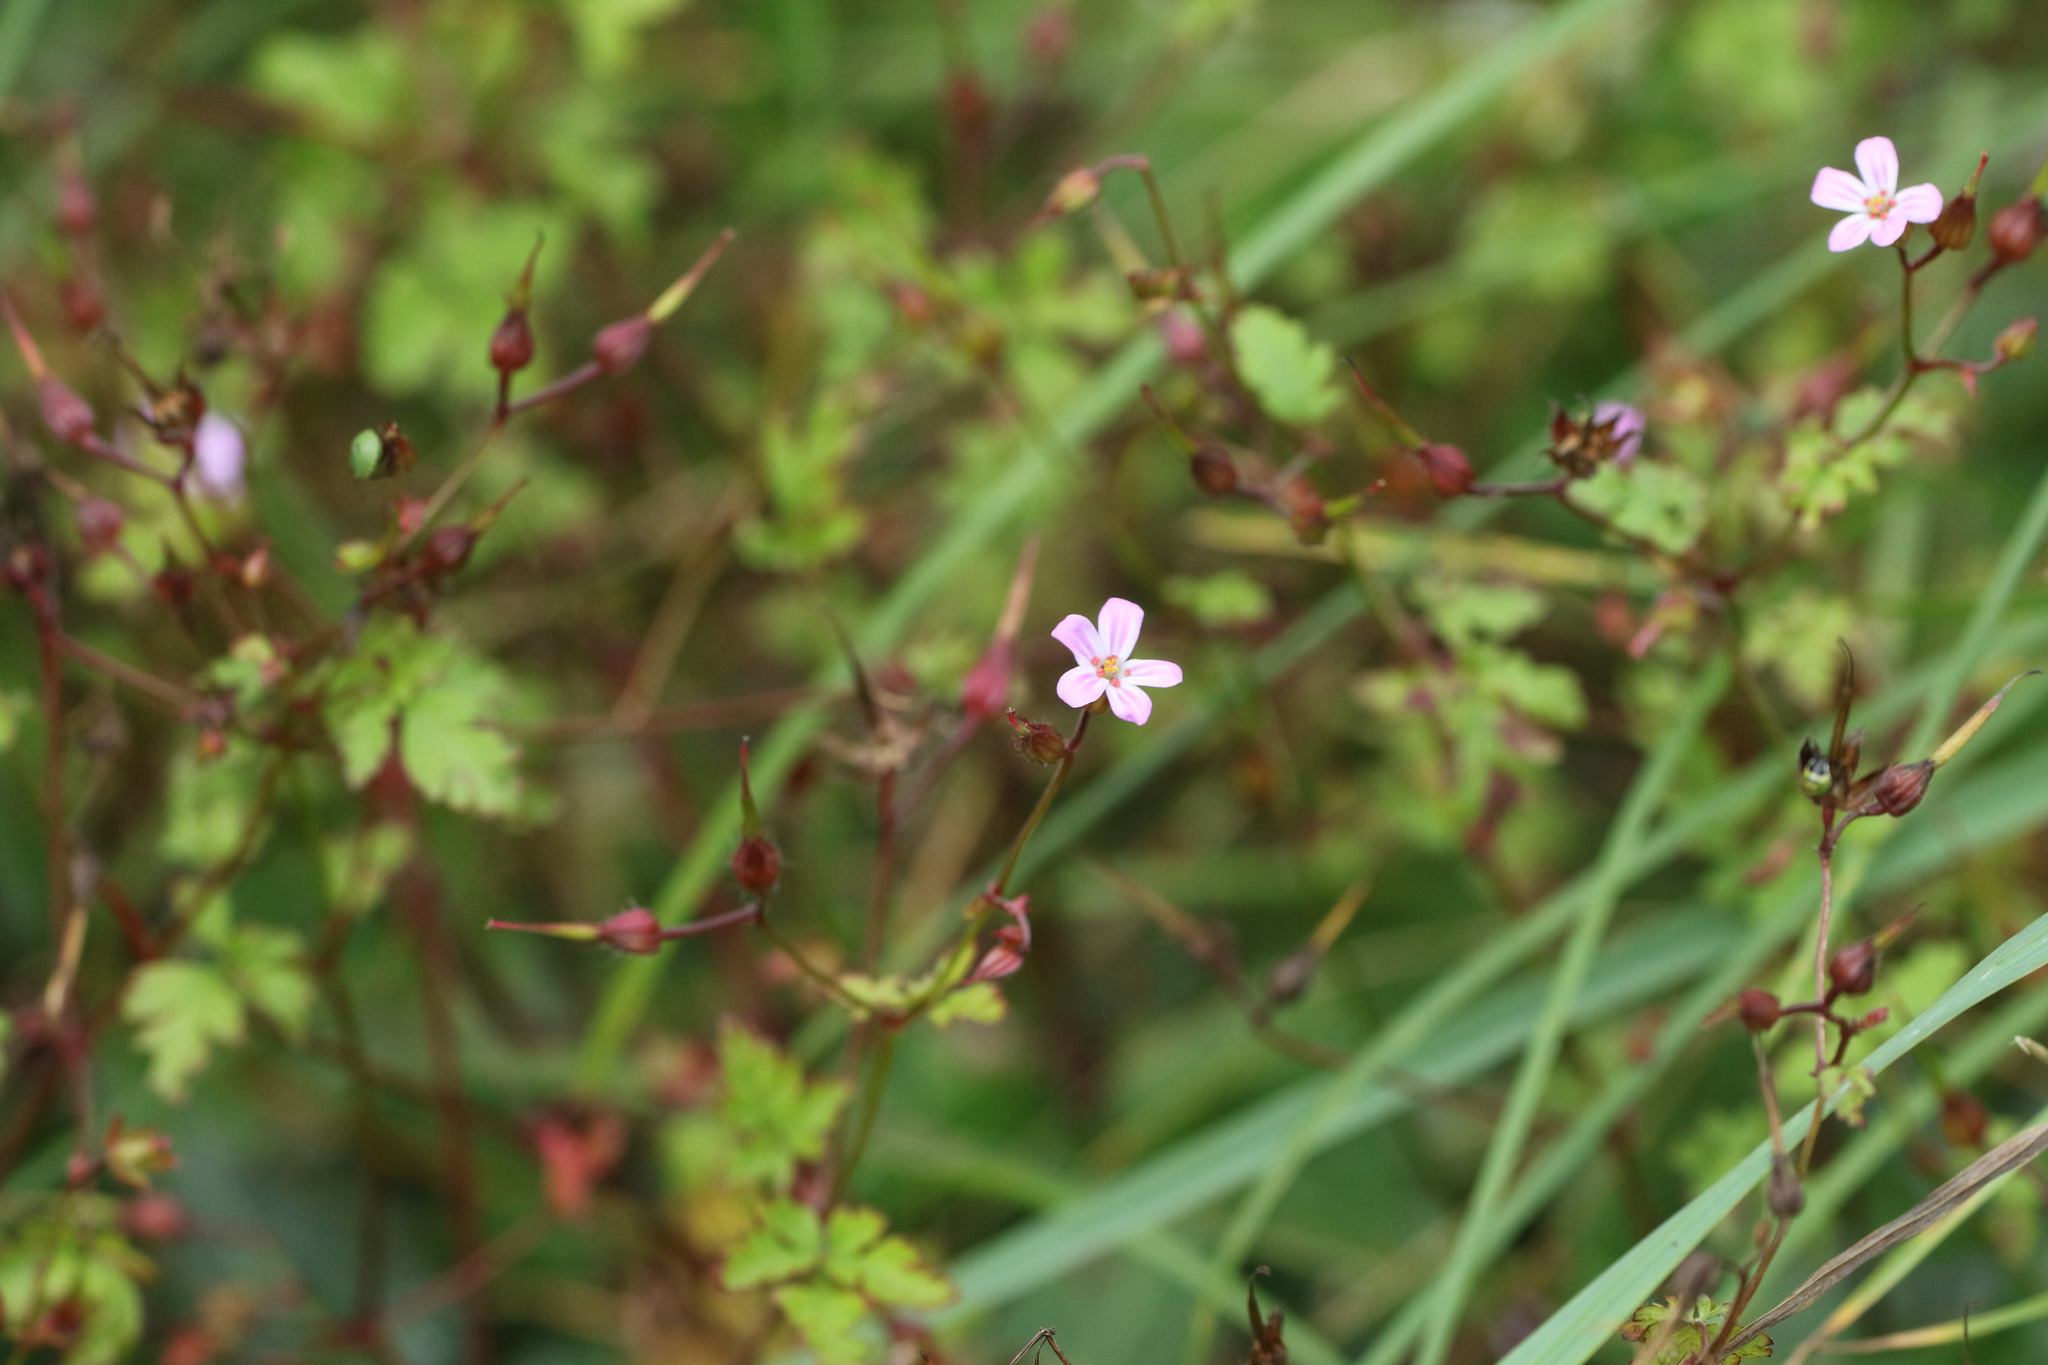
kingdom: Plantae
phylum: Tracheophyta
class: Magnoliopsida
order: Geraniales
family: Geraniaceae
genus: Geranium
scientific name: Geranium robertianum
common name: Herb-robert
